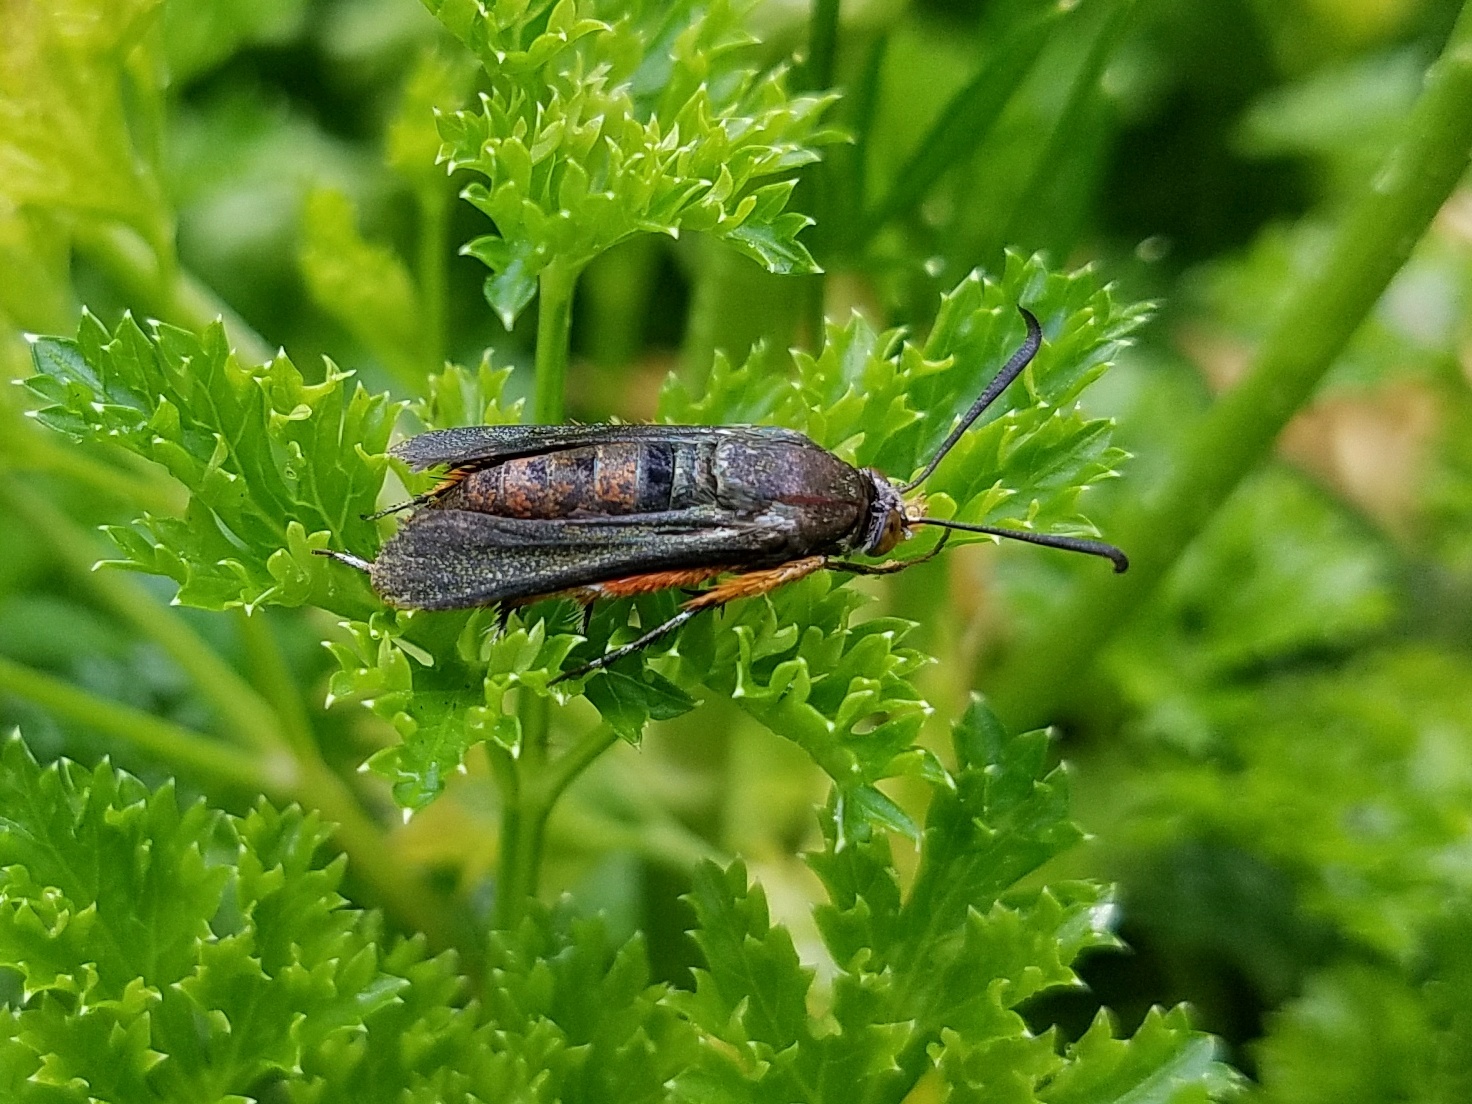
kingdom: Animalia
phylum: Arthropoda
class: Insecta
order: Lepidoptera
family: Sesiidae
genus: Eichlinia
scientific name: Eichlinia cucurbitae
